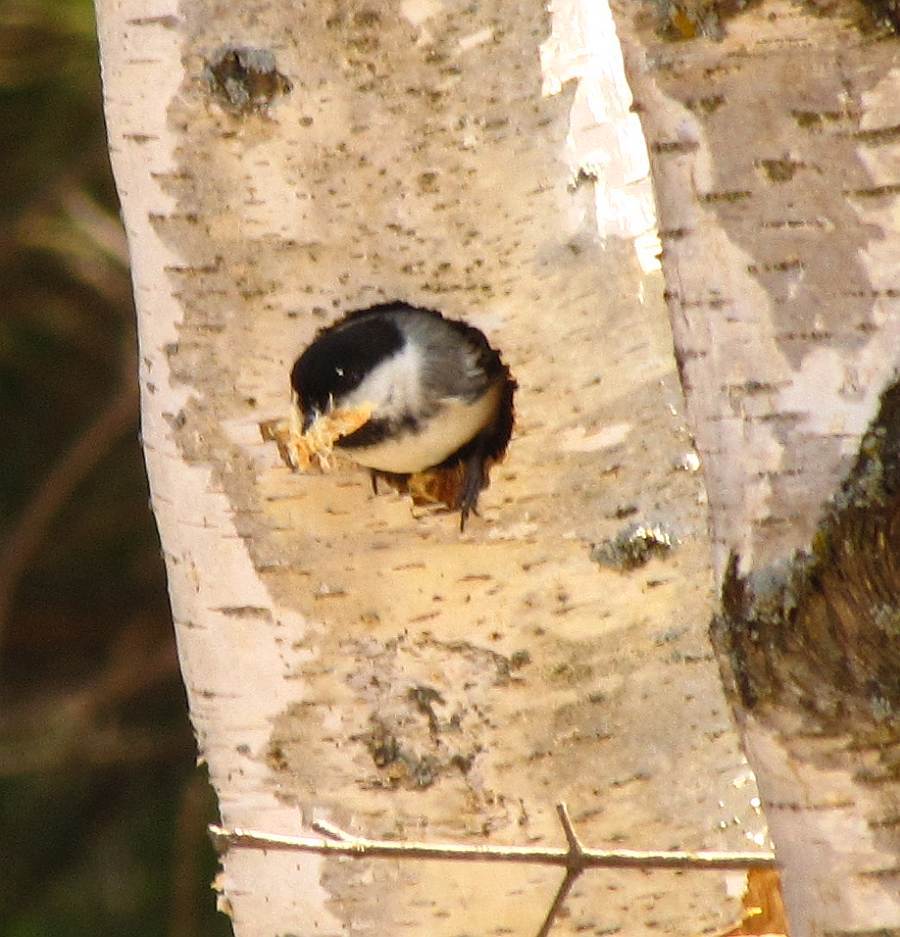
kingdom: Animalia
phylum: Chordata
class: Aves
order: Passeriformes
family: Paridae
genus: Poecile
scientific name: Poecile atricapillus
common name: Black-capped chickadee
